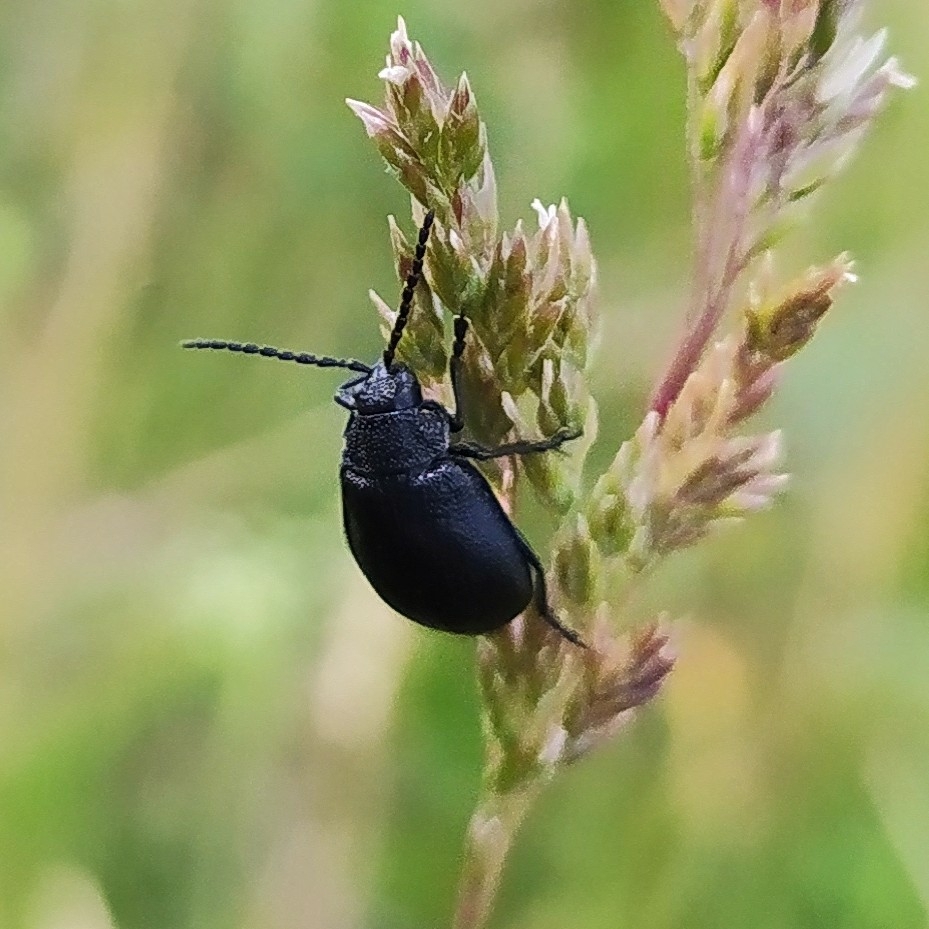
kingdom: Animalia
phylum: Arthropoda
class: Insecta
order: Coleoptera
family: Chrysomelidae
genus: Galeruca
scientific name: Galeruca tanaceti
